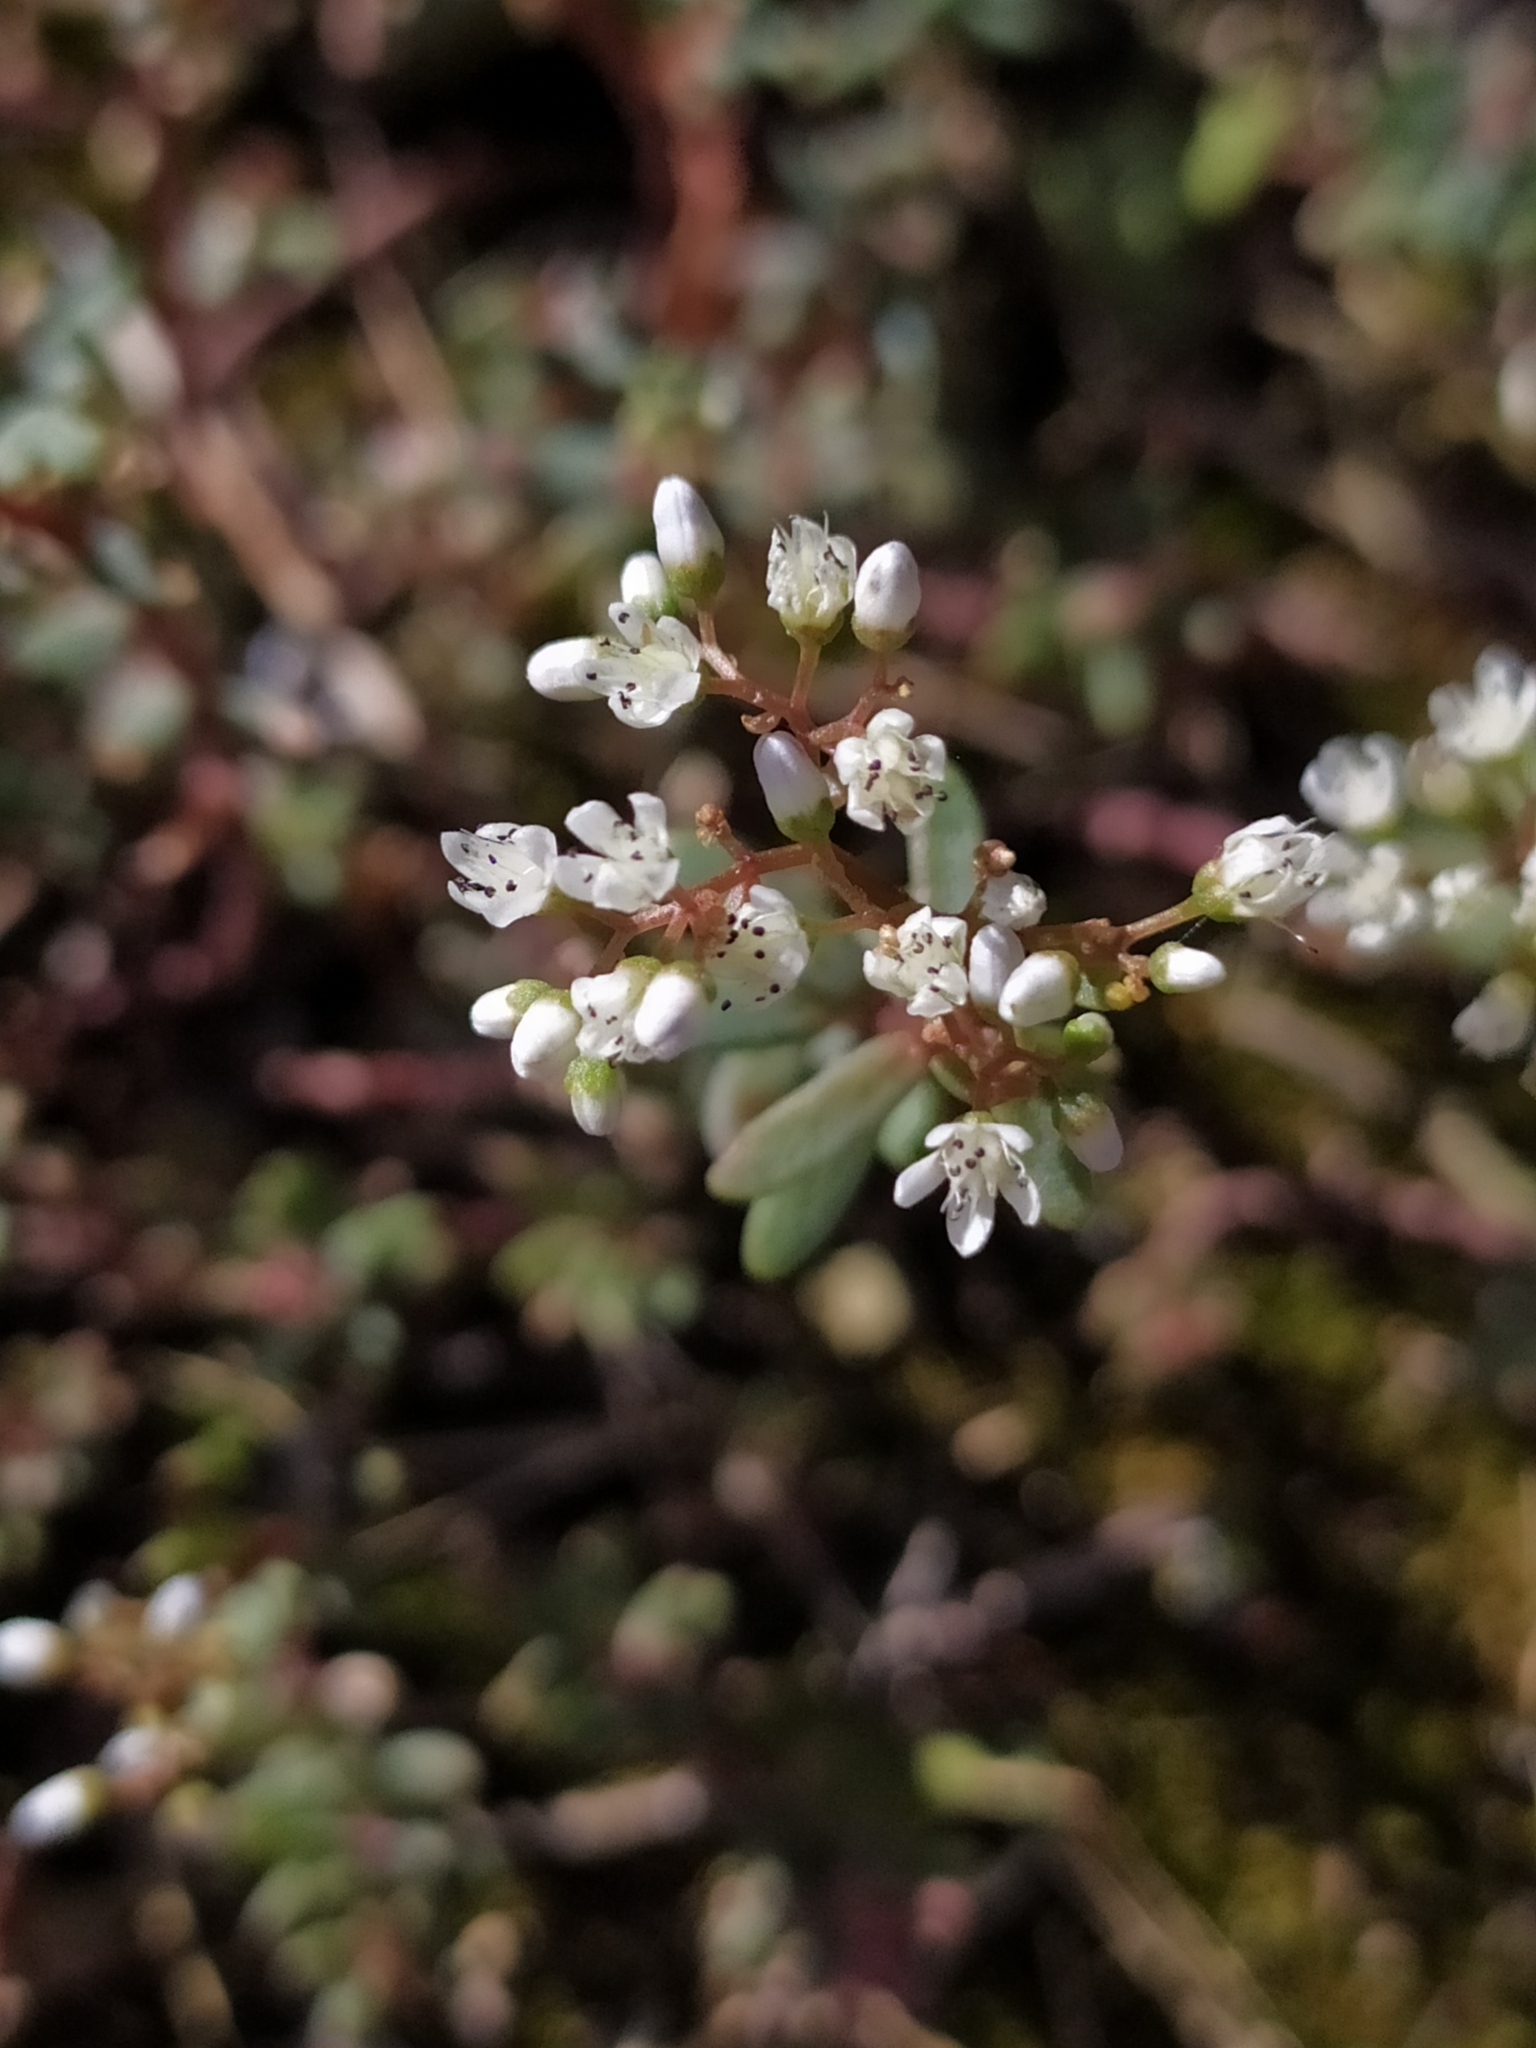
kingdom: Plantae
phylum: Tracheophyta
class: Magnoliopsida
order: Saxifragales
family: Crassulaceae
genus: Sedum
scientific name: Sedum album
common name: White stonecrop
